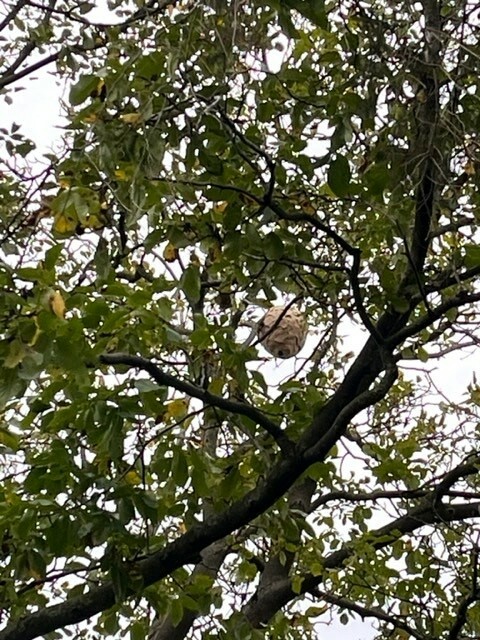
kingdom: Animalia
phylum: Arthropoda
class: Insecta
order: Hymenoptera
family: Vespidae
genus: Vespa
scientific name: Vespa velutina
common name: Asian hornet
